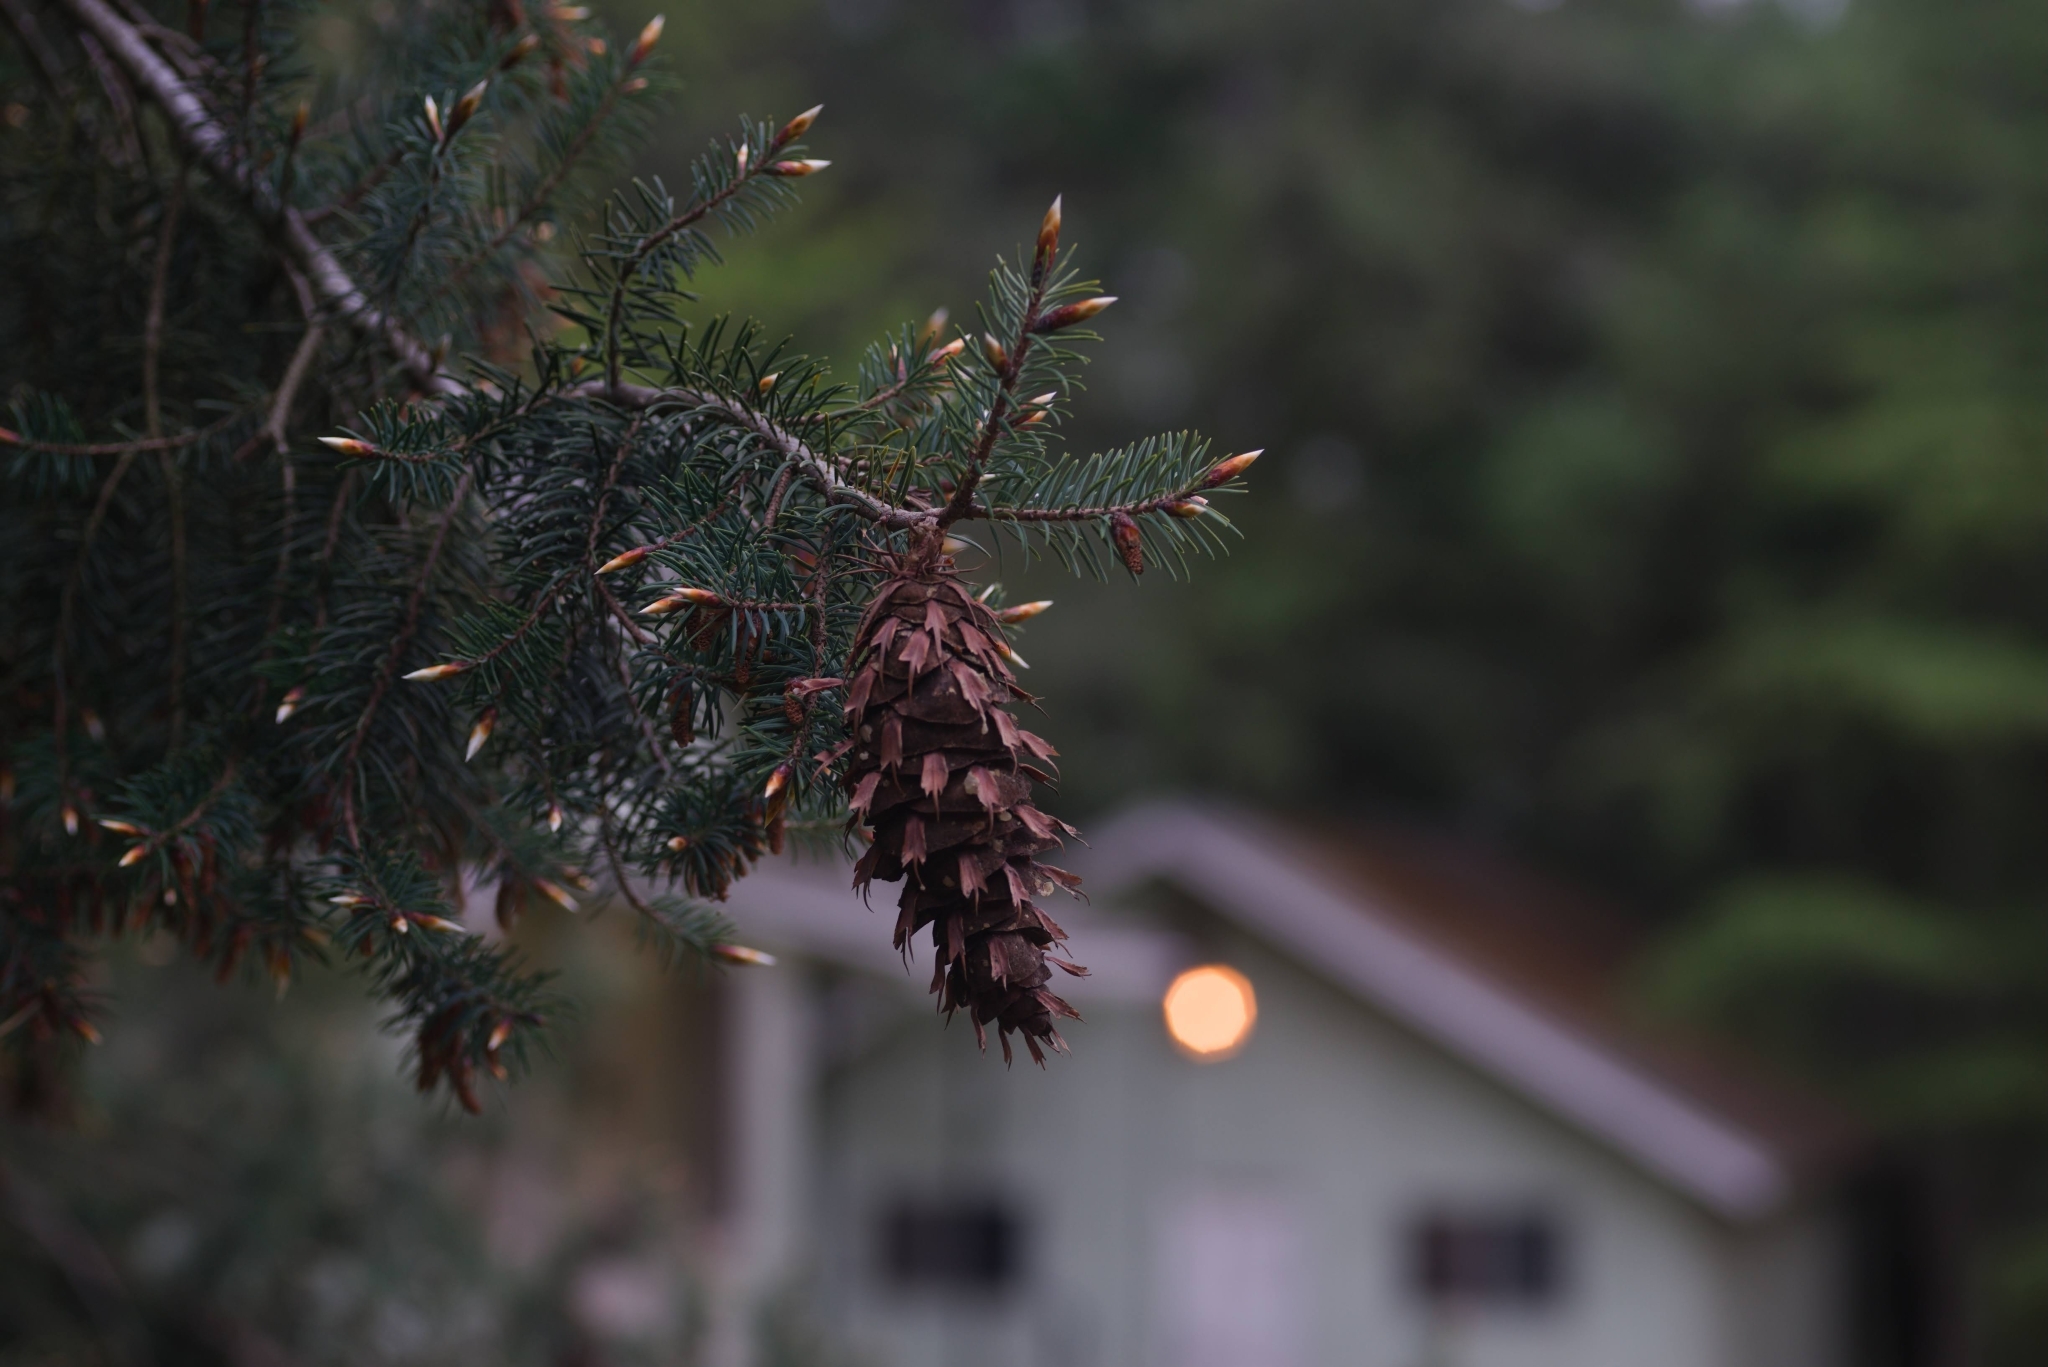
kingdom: Plantae
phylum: Tracheophyta
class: Pinopsida
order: Pinales
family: Pinaceae
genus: Pseudotsuga
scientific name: Pseudotsuga macrocarpa
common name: Big-cone douglas-fir
